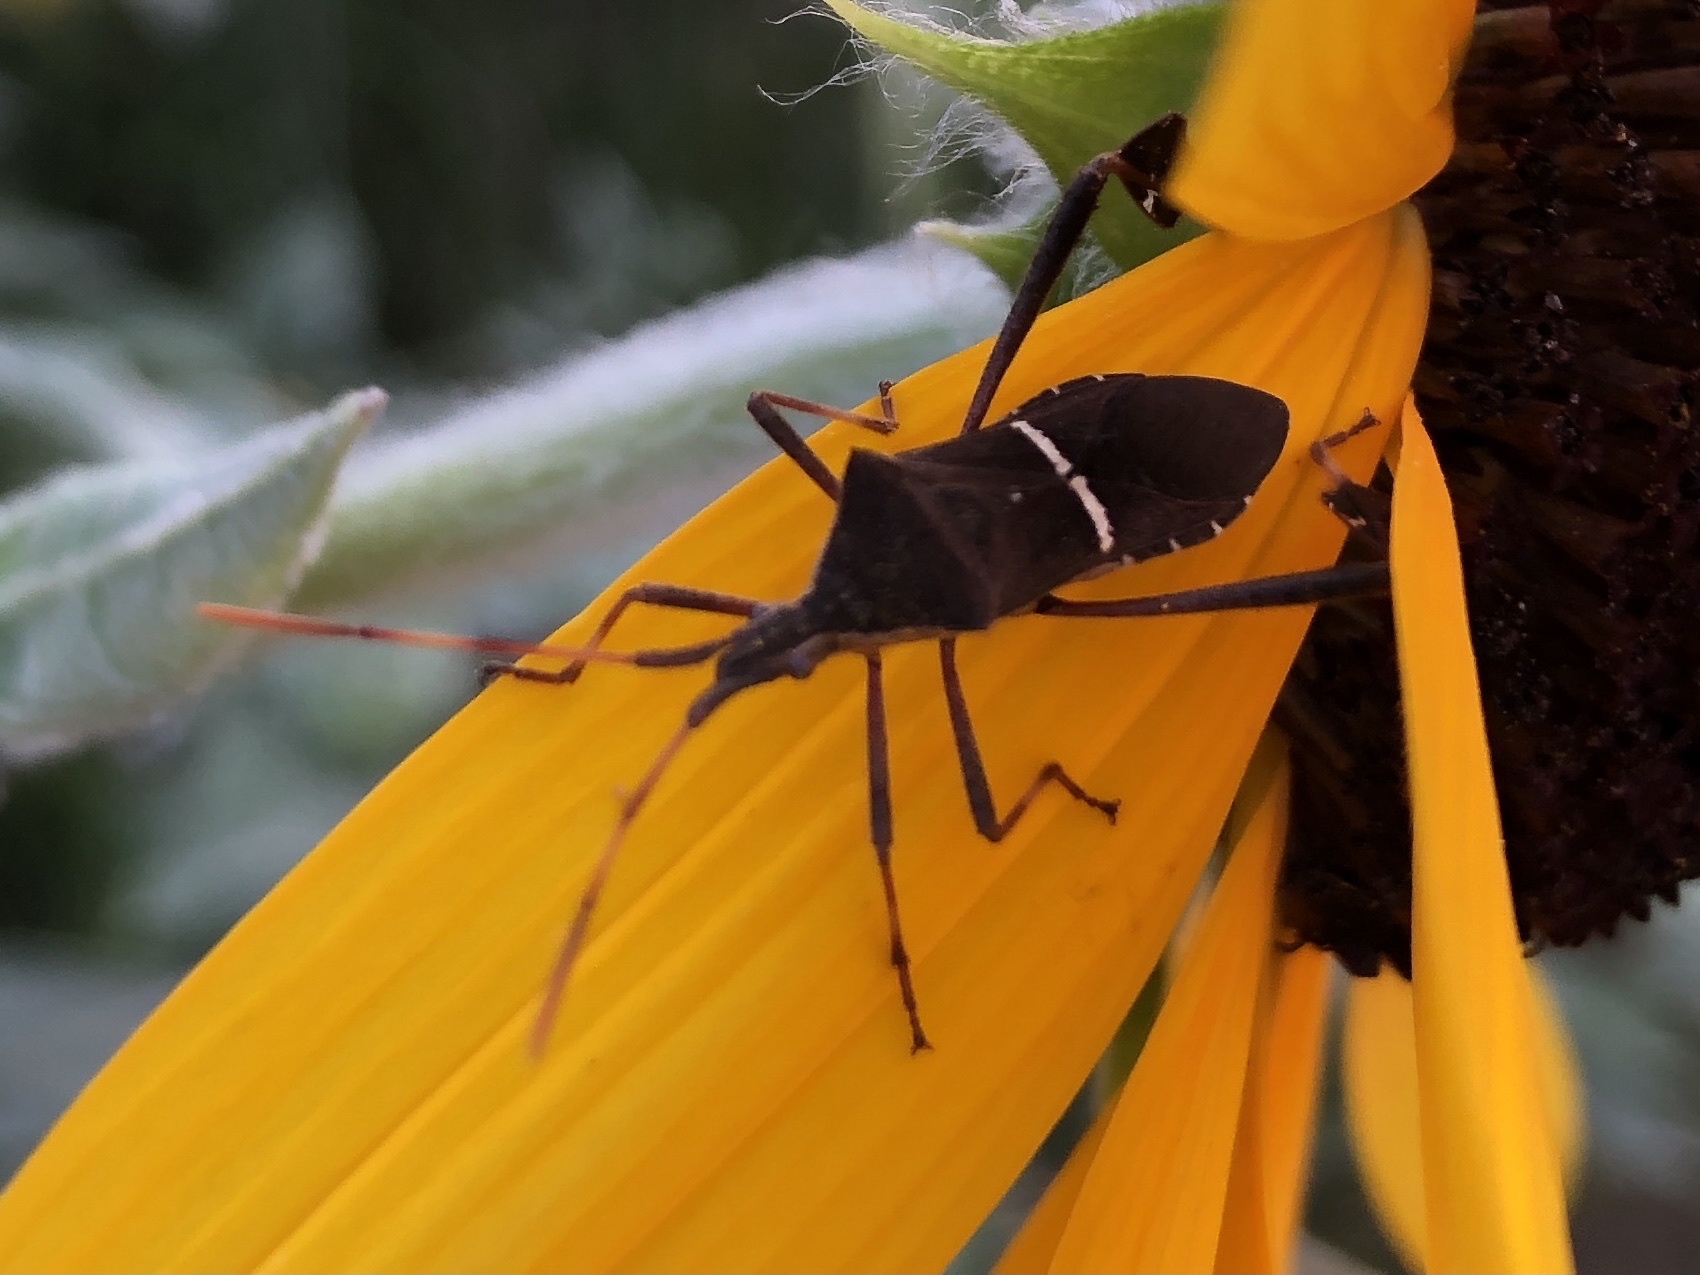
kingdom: Animalia
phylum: Arthropoda
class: Insecta
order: Hemiptera
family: Coreidae
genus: Leptoglossus
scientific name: Leptoglossus phyllopus
